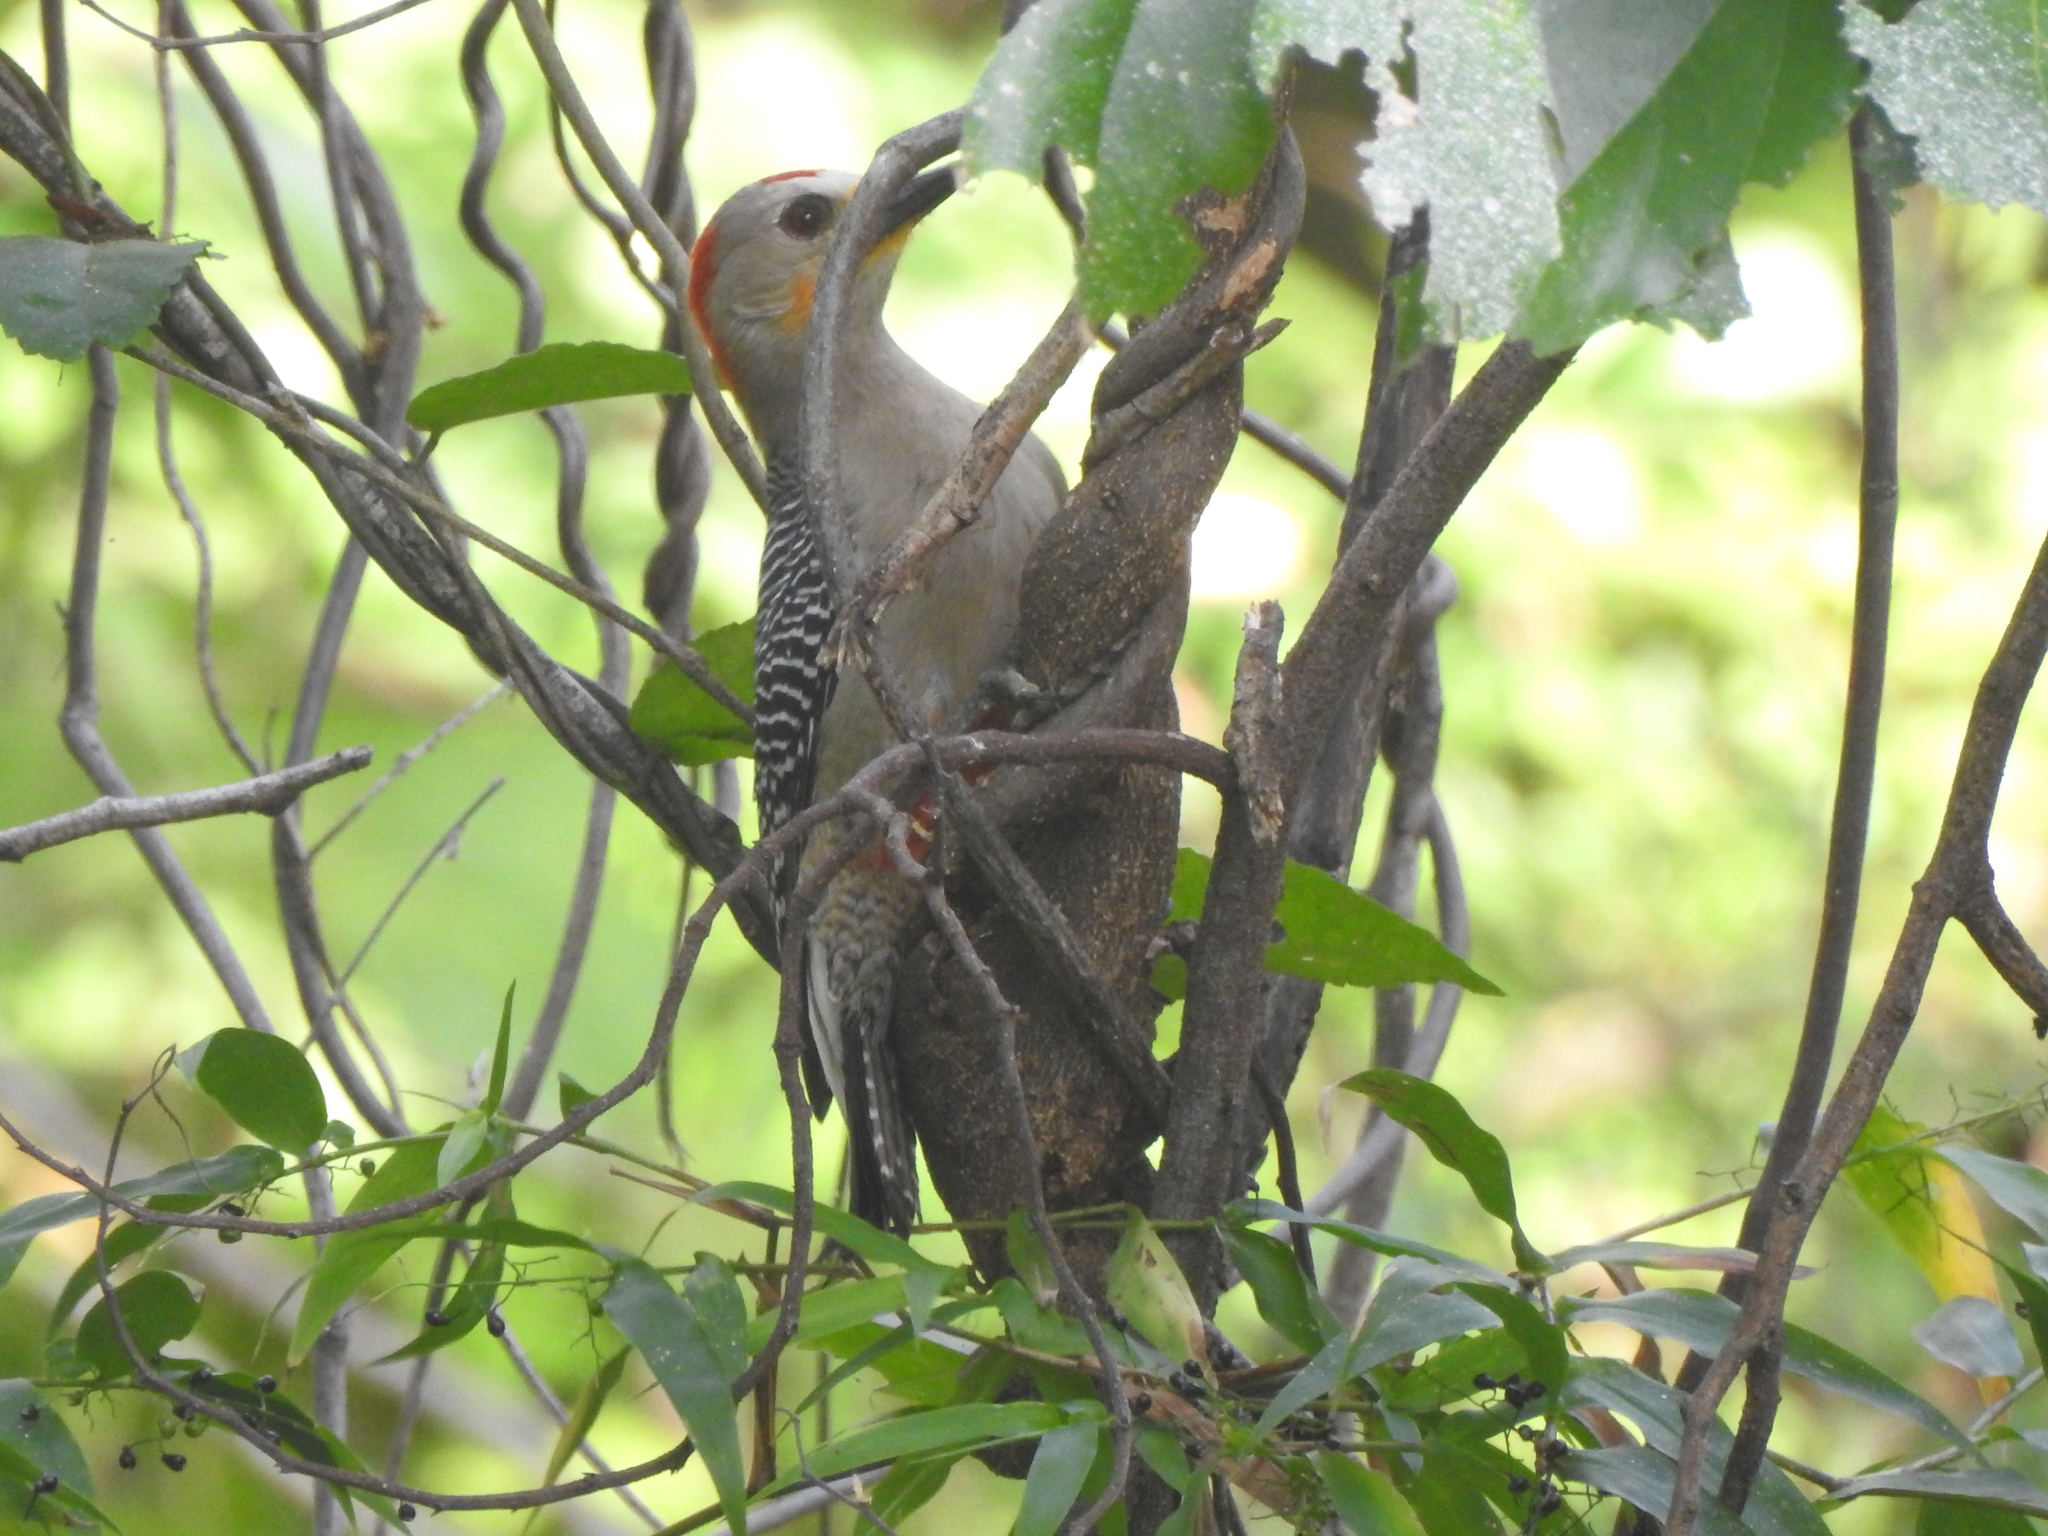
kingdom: Animalia
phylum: Chordata
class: Aves
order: Piciformes
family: Picidae
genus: Melanerpes
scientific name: Melanerpes pygmaeus
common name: Yucatan woodpecker
